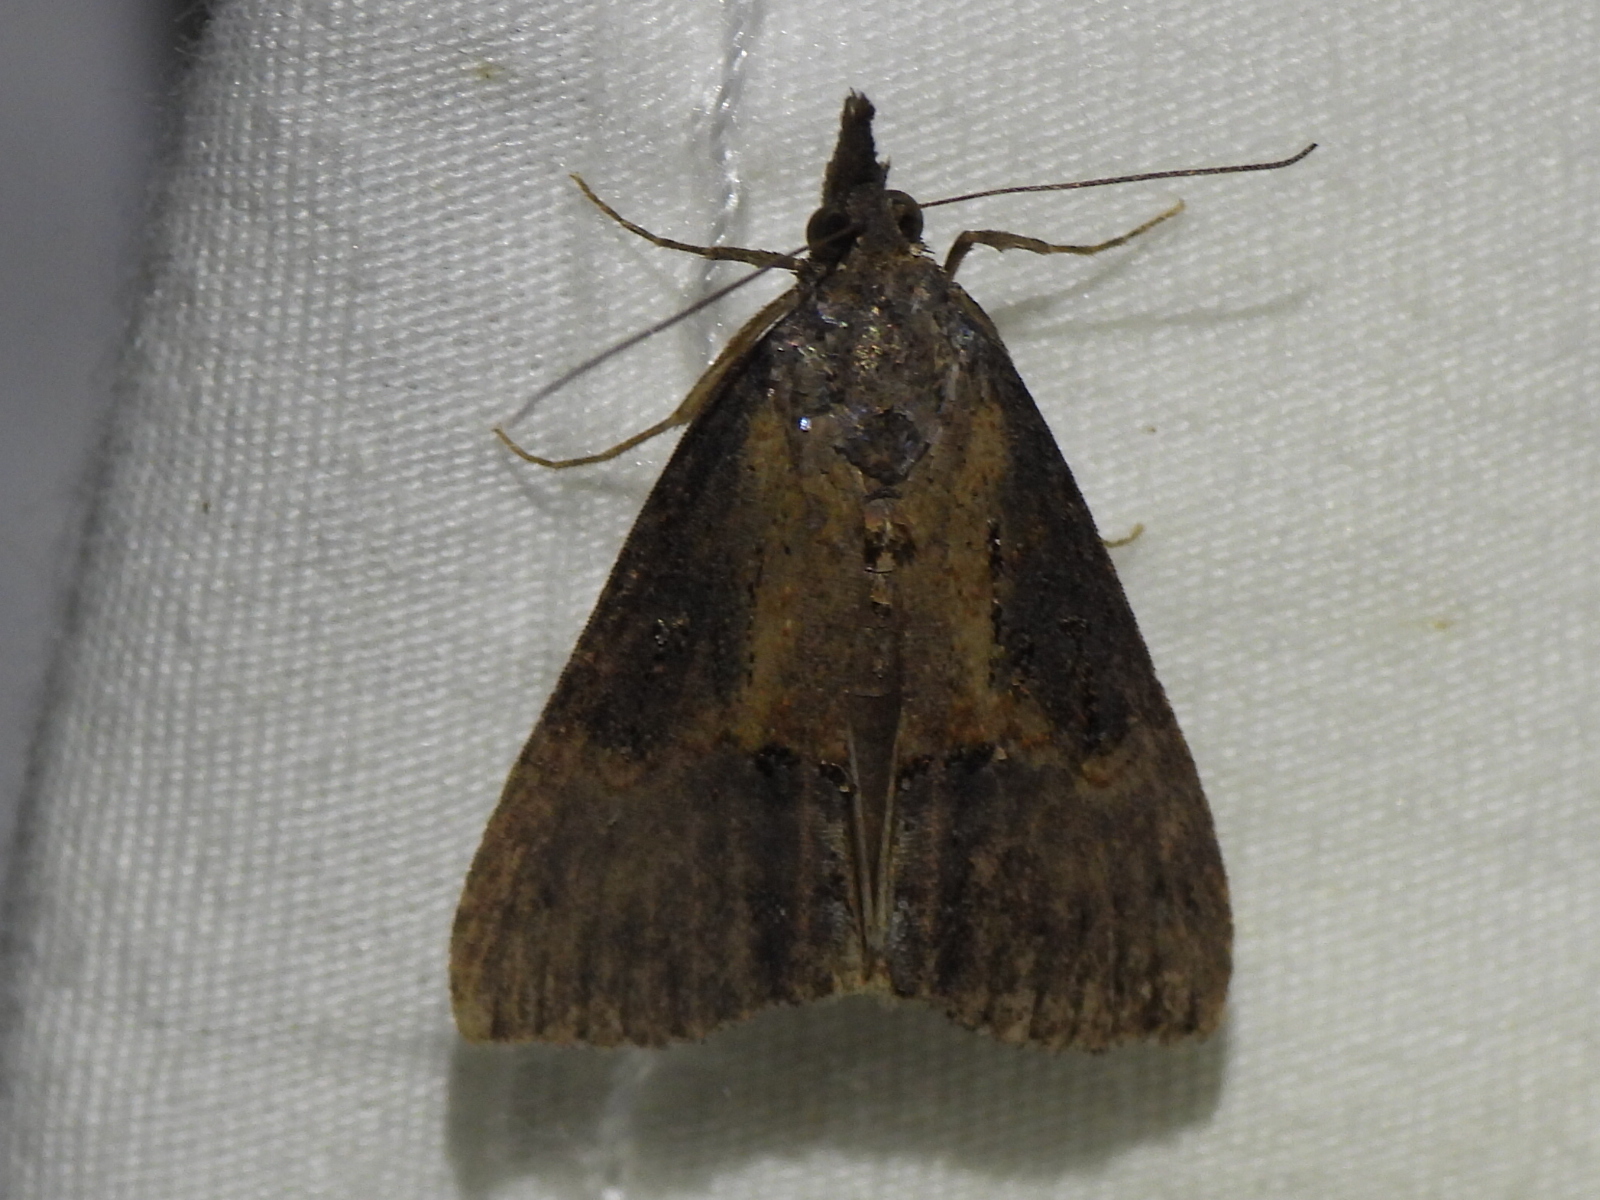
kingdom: Animalia
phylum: Arthropoda
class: Insecta
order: Lepidoptera
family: Erebidae
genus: Hypena
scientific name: Hypena scabra
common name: Green cloverworm
